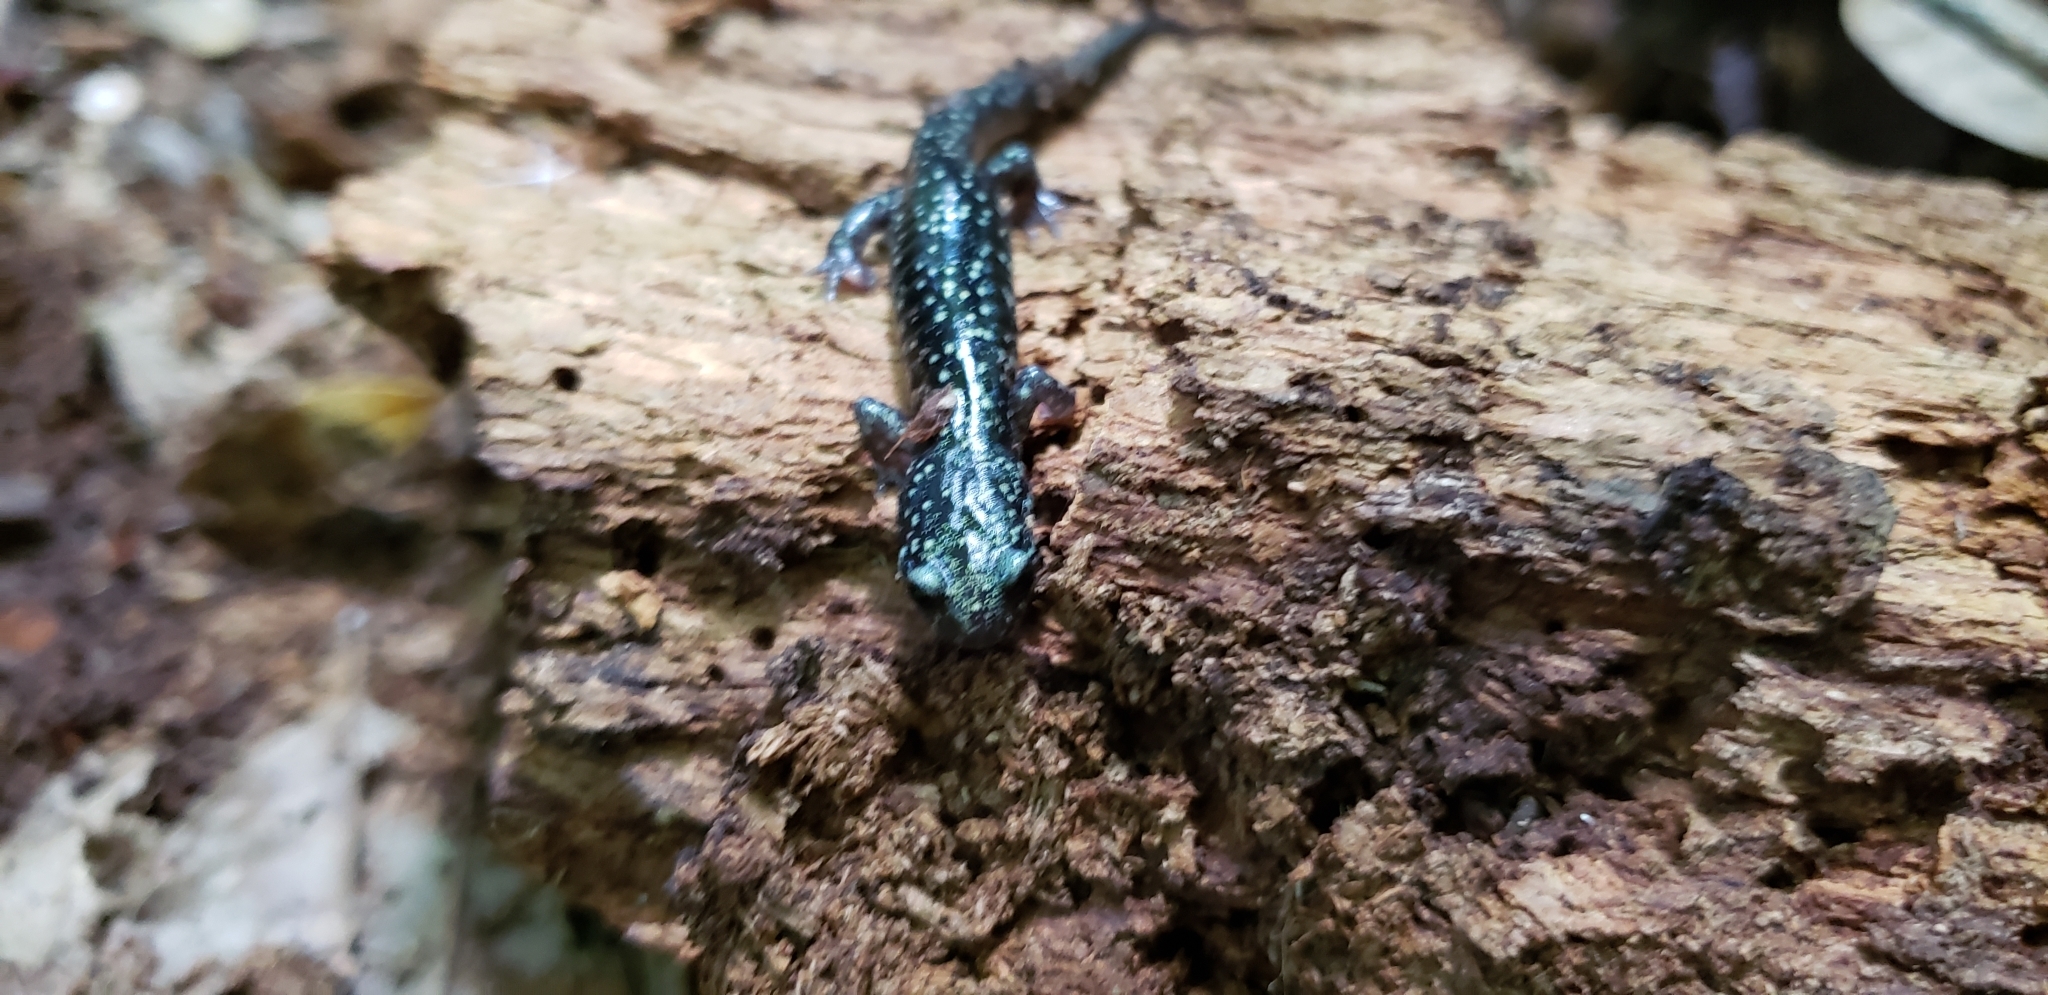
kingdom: Animalia
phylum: Chordata
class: Amphibia
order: Caudata
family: Plethodontidae
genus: Plethodon
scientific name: Plethodon mississippi
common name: Mississippi slimy salamander
